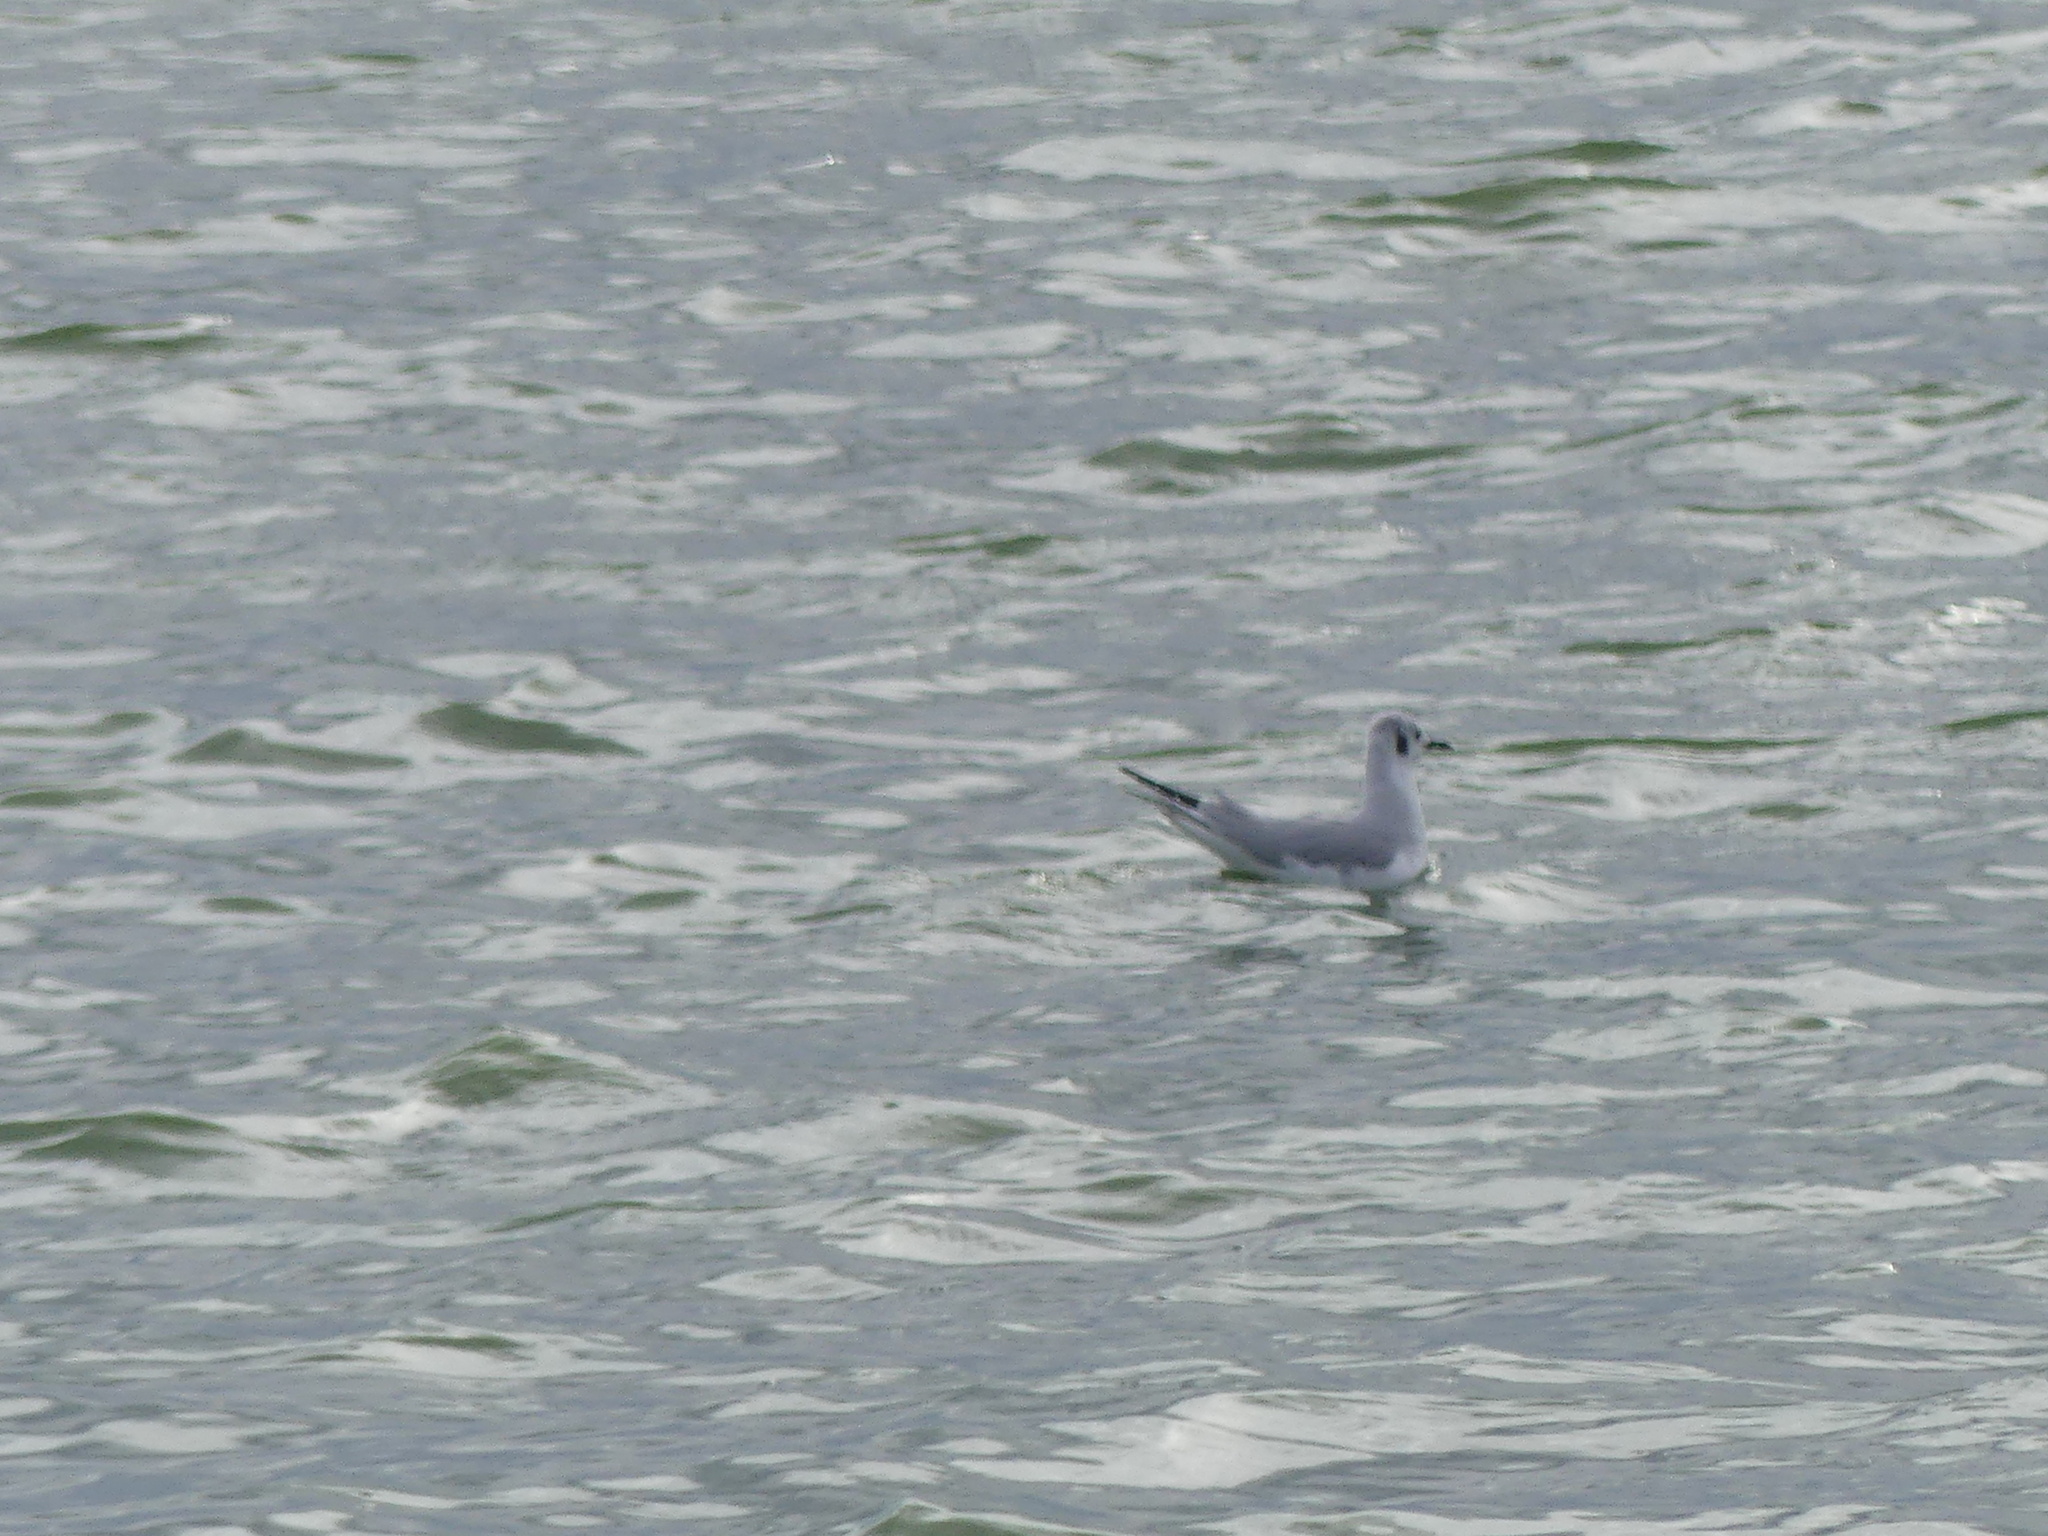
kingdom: Animalia
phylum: Chordata
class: Aves
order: Charadriiformes
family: Laridae
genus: Chroicocephalus
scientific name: Chroicocephalus philadelphia
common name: Bonaparte's gull
